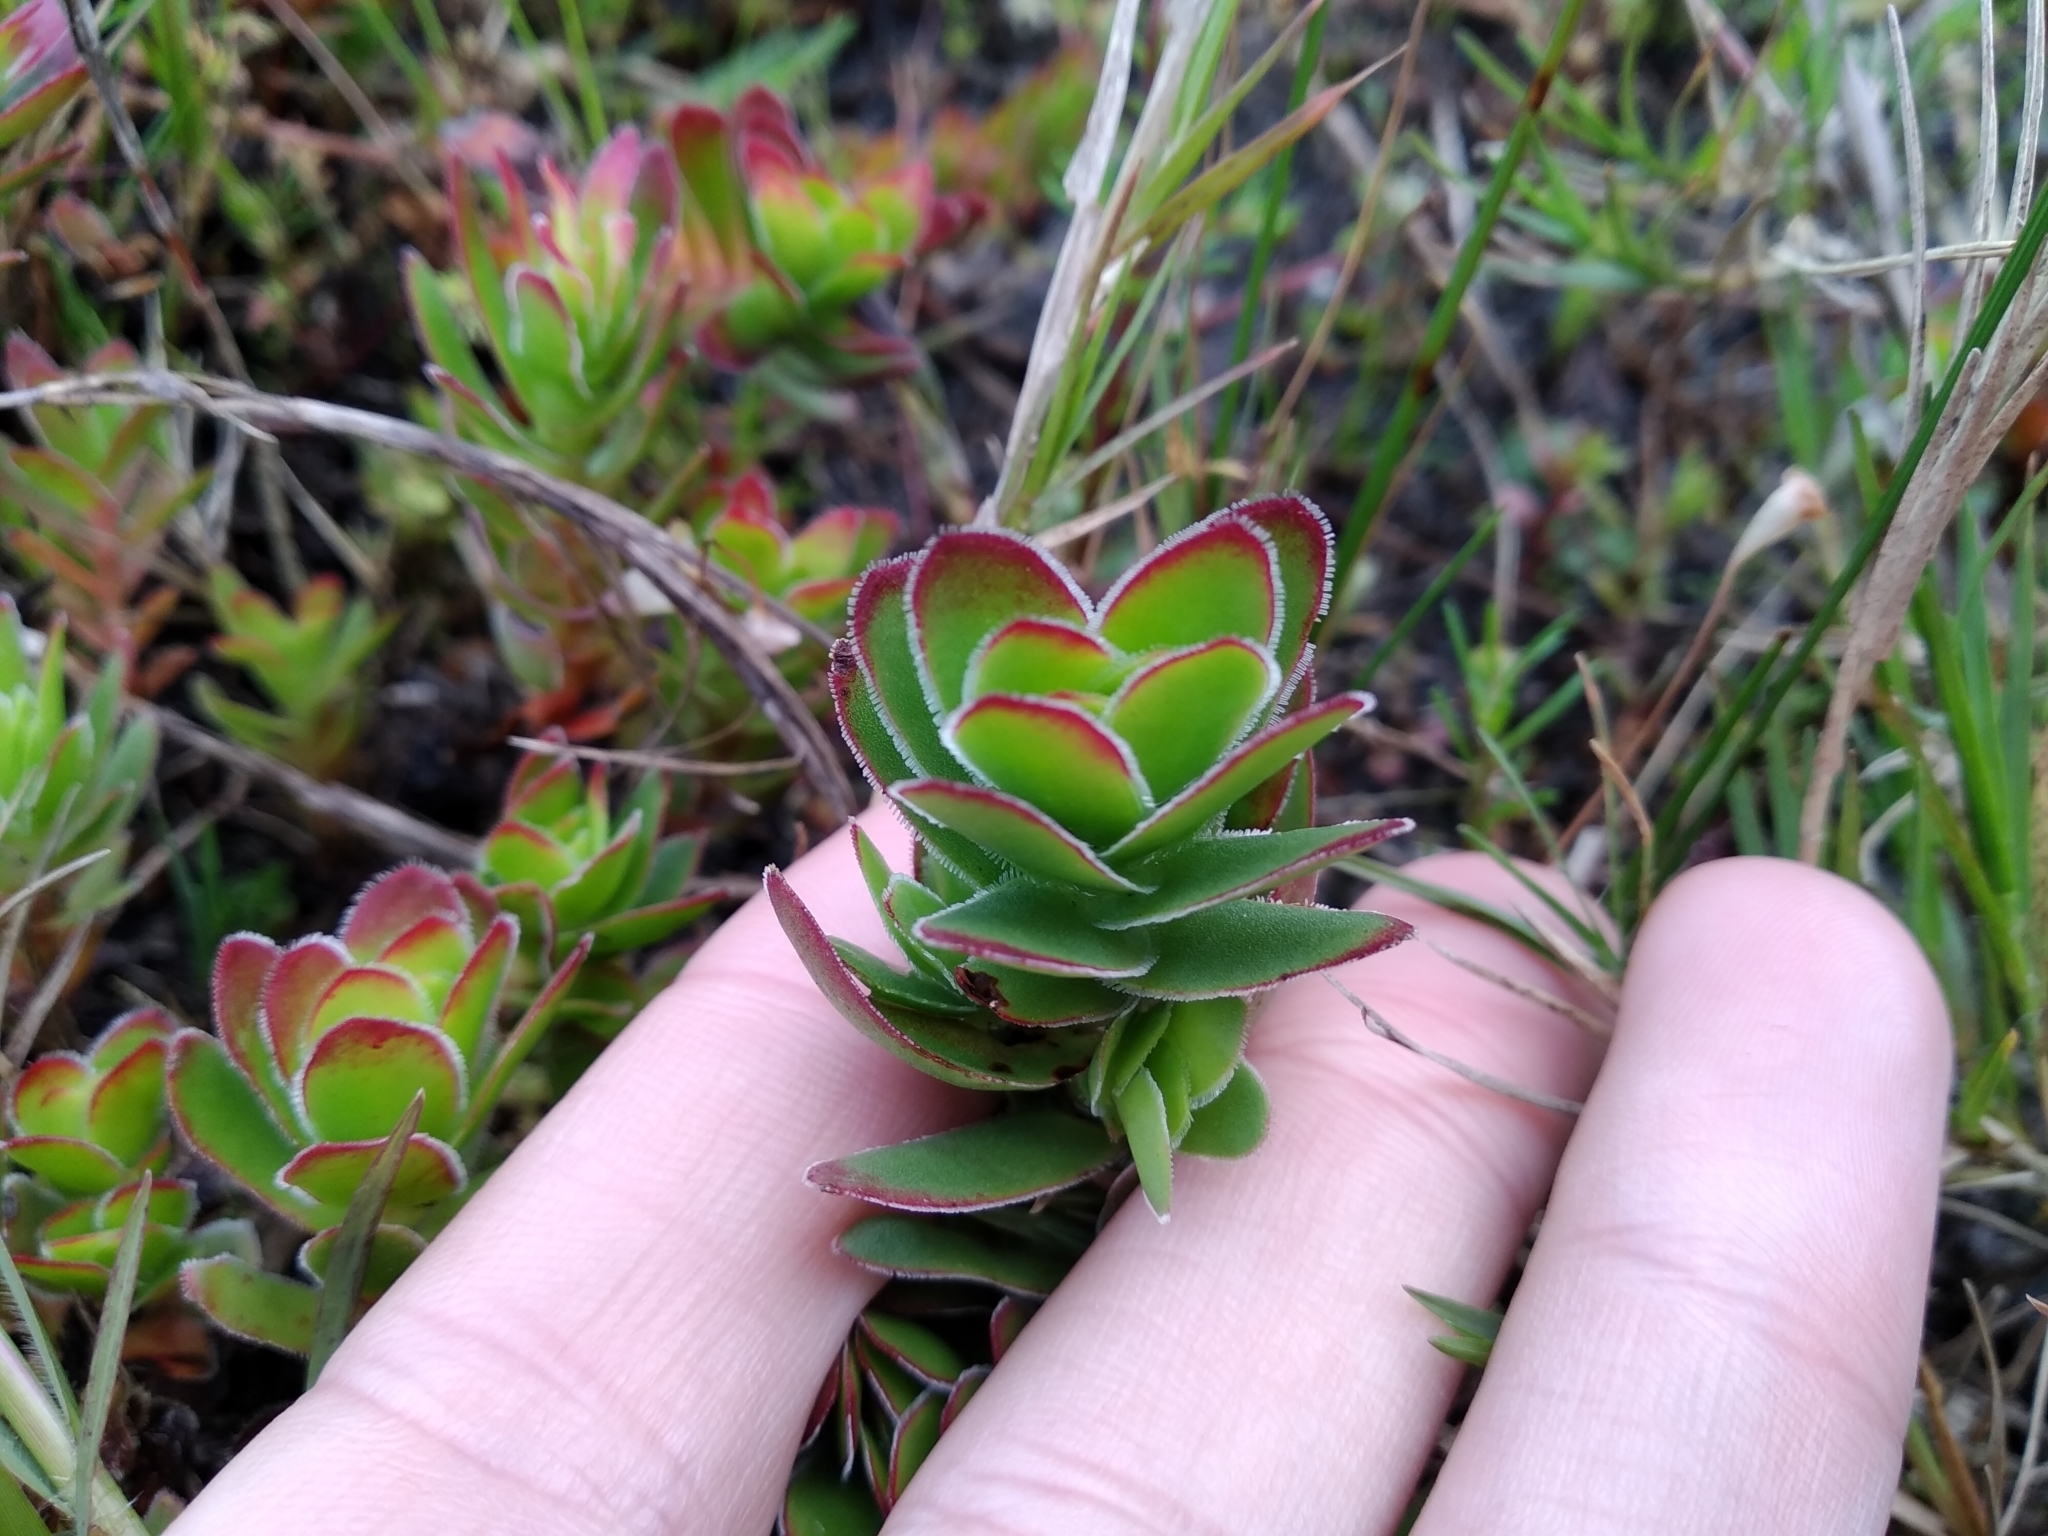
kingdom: Plantae
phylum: Tracheophyta
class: Magnoliopsida
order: Saxifragales
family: Crassulaceae
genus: Crassula
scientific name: Crassula fallax
